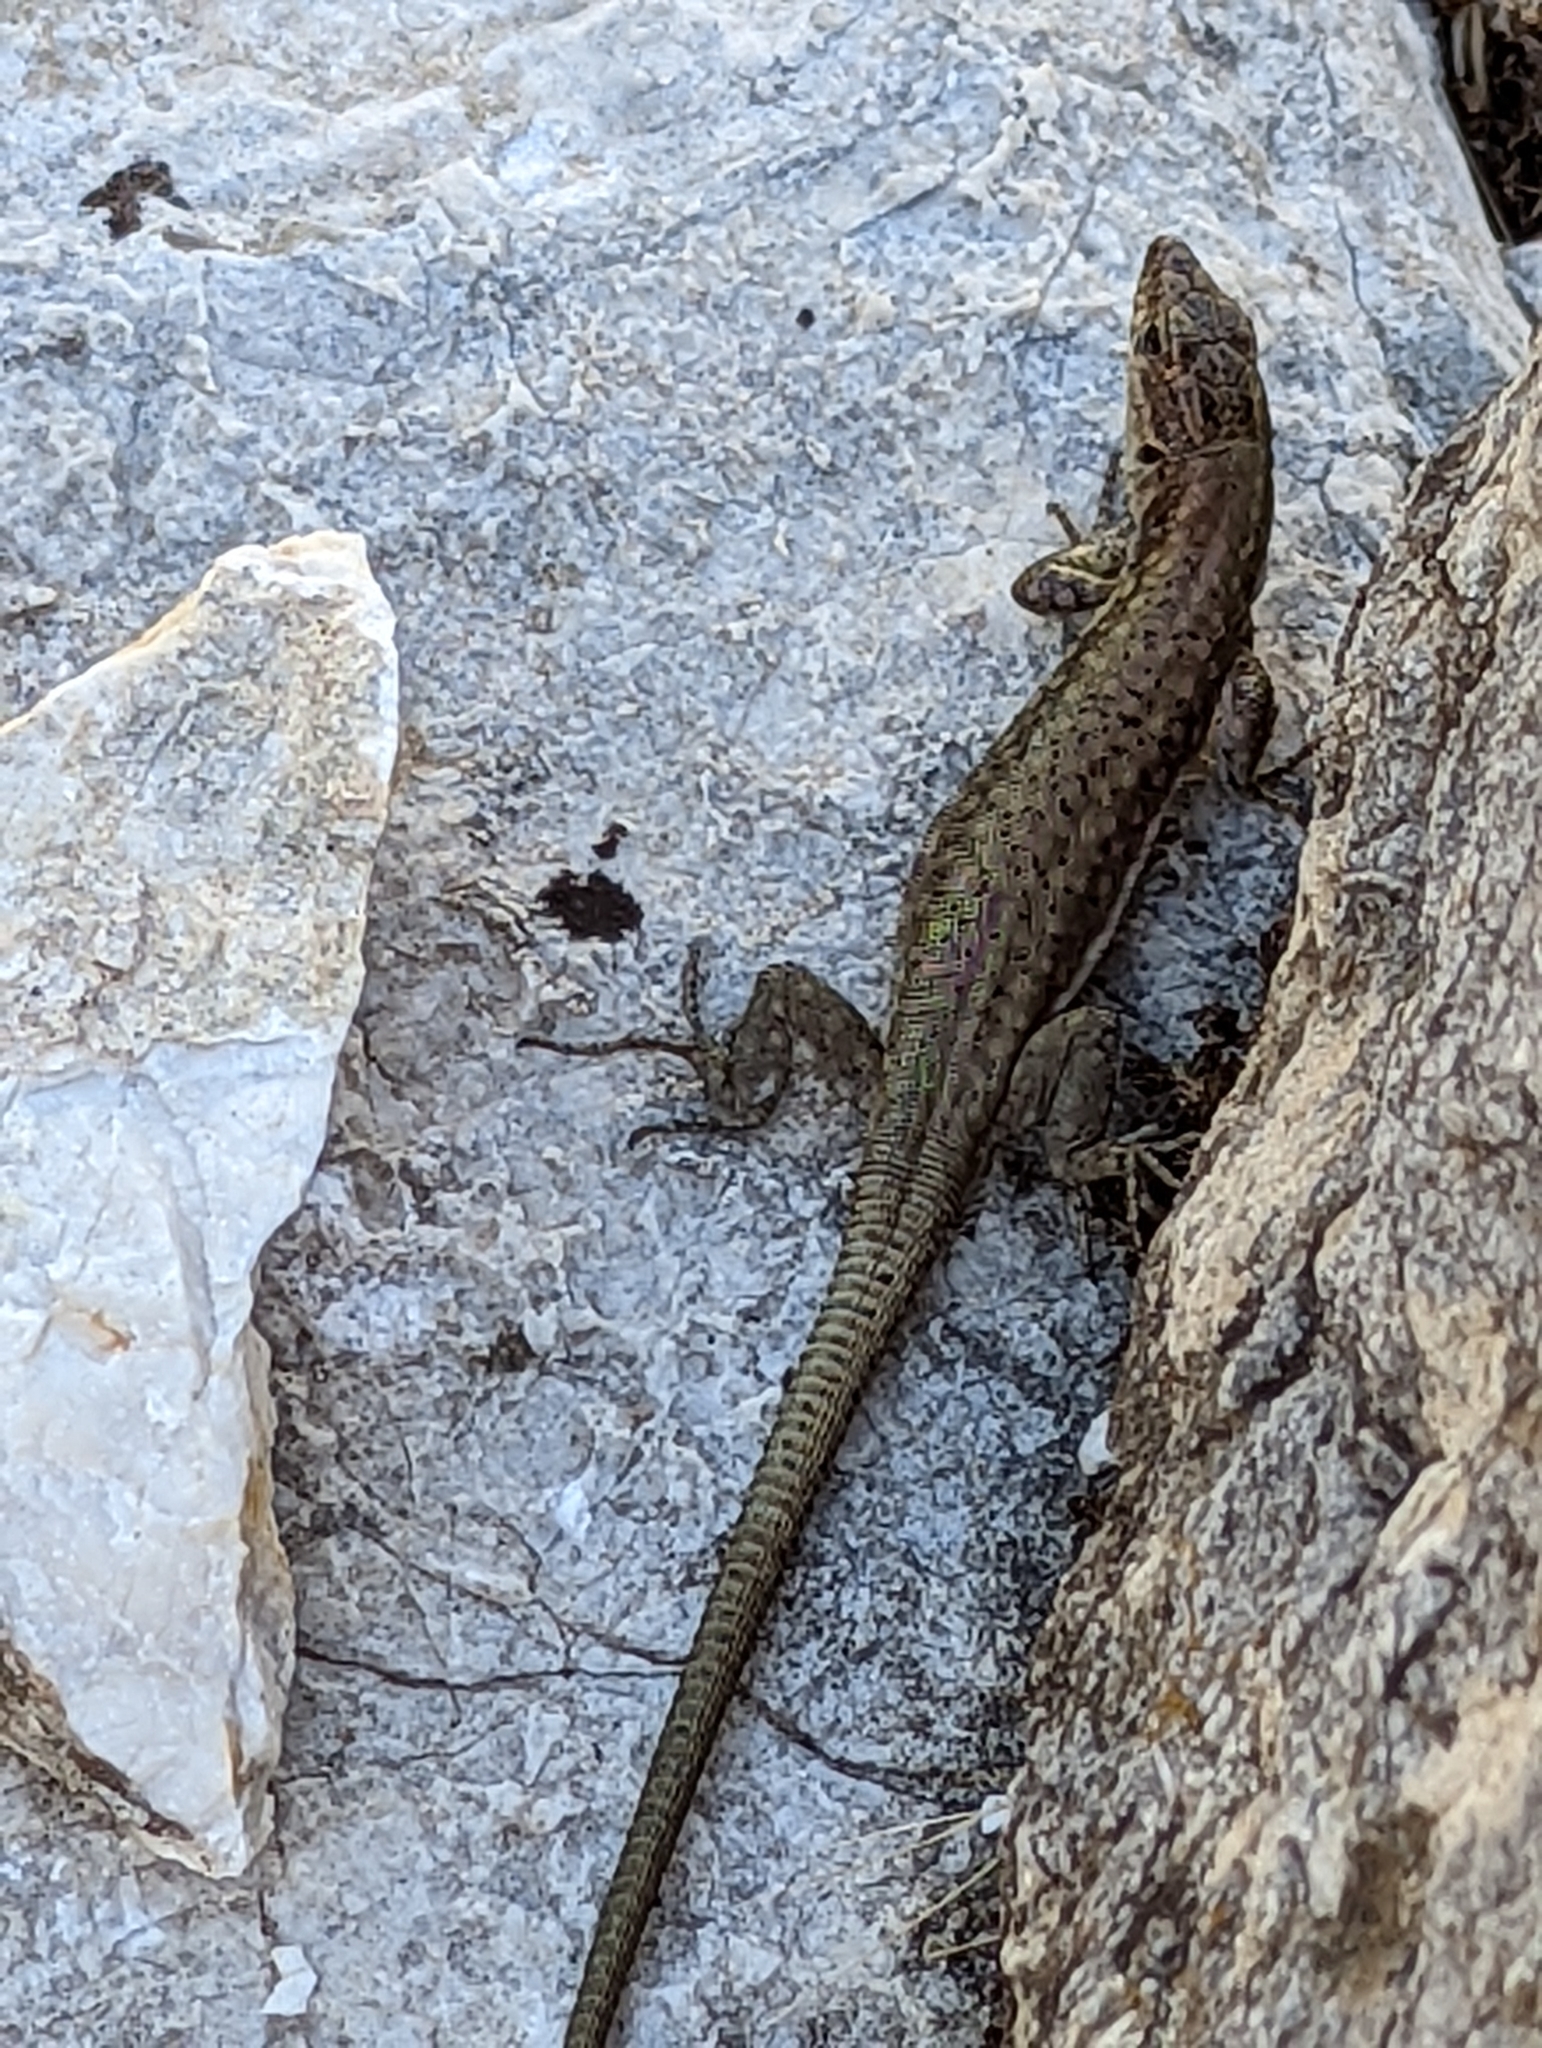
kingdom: Animalia
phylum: Chordata
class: Squamata
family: Lacertidae
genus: Anatololacerta
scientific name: Anatololacerta ibrahimi
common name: Baran’s lizard
